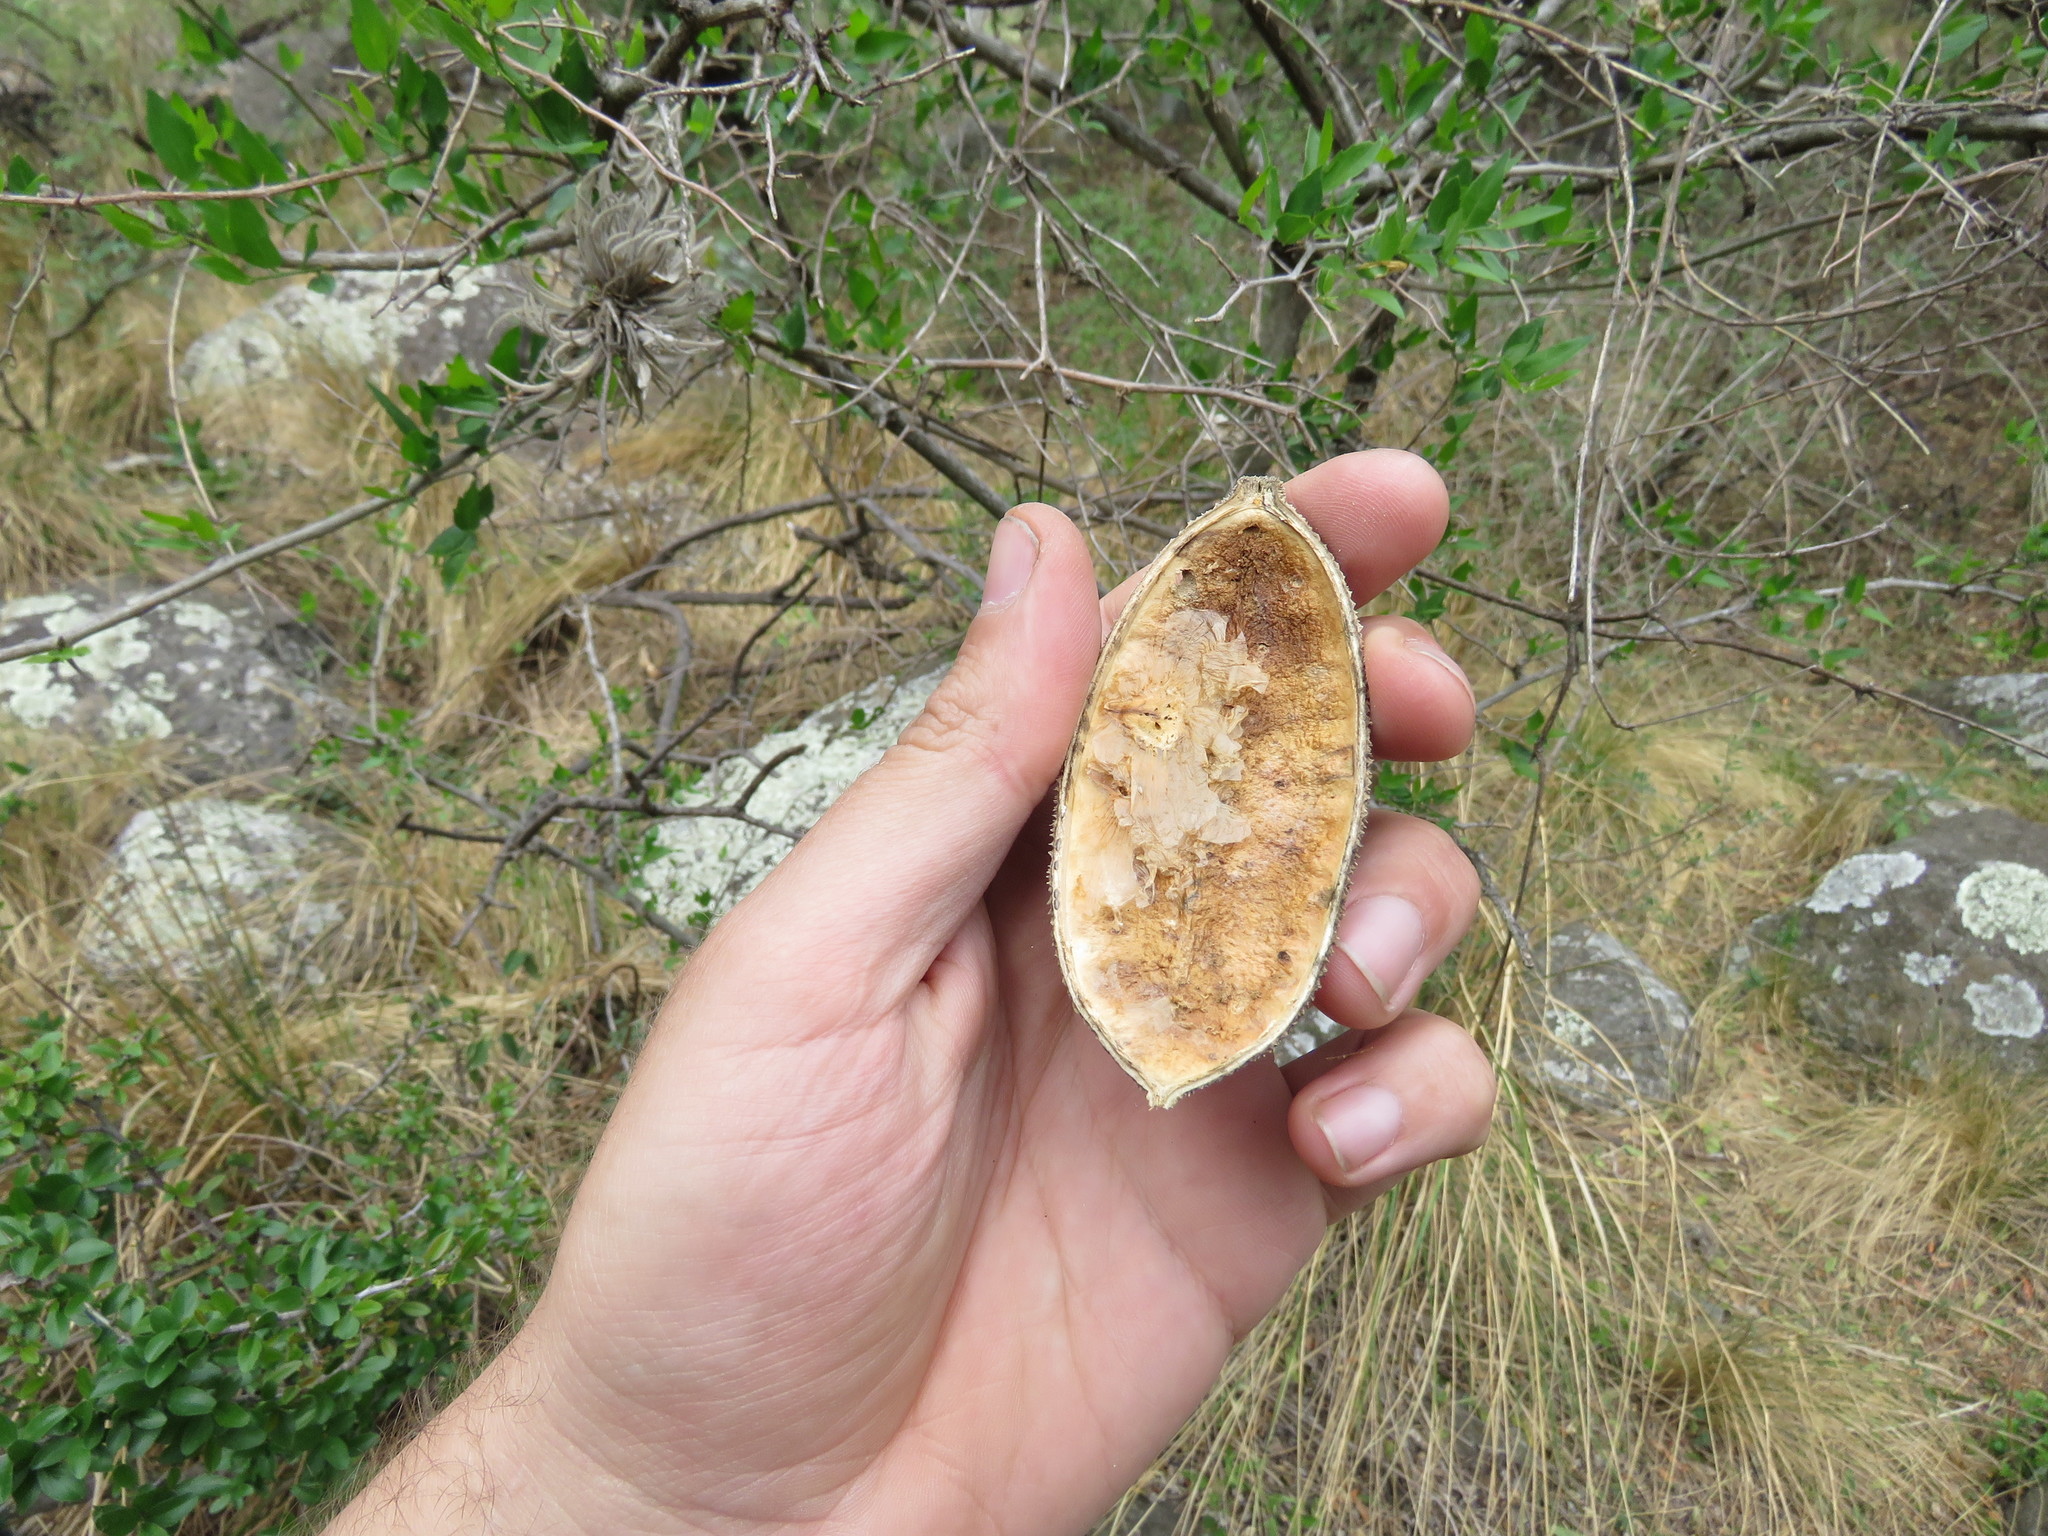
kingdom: Plantae
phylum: Tracheophyta
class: Magnoliopsida
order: Lamiales
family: Bignoniaceae
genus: Amphilophium
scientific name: Amphilophium carolinae
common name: Monkey's-comb
